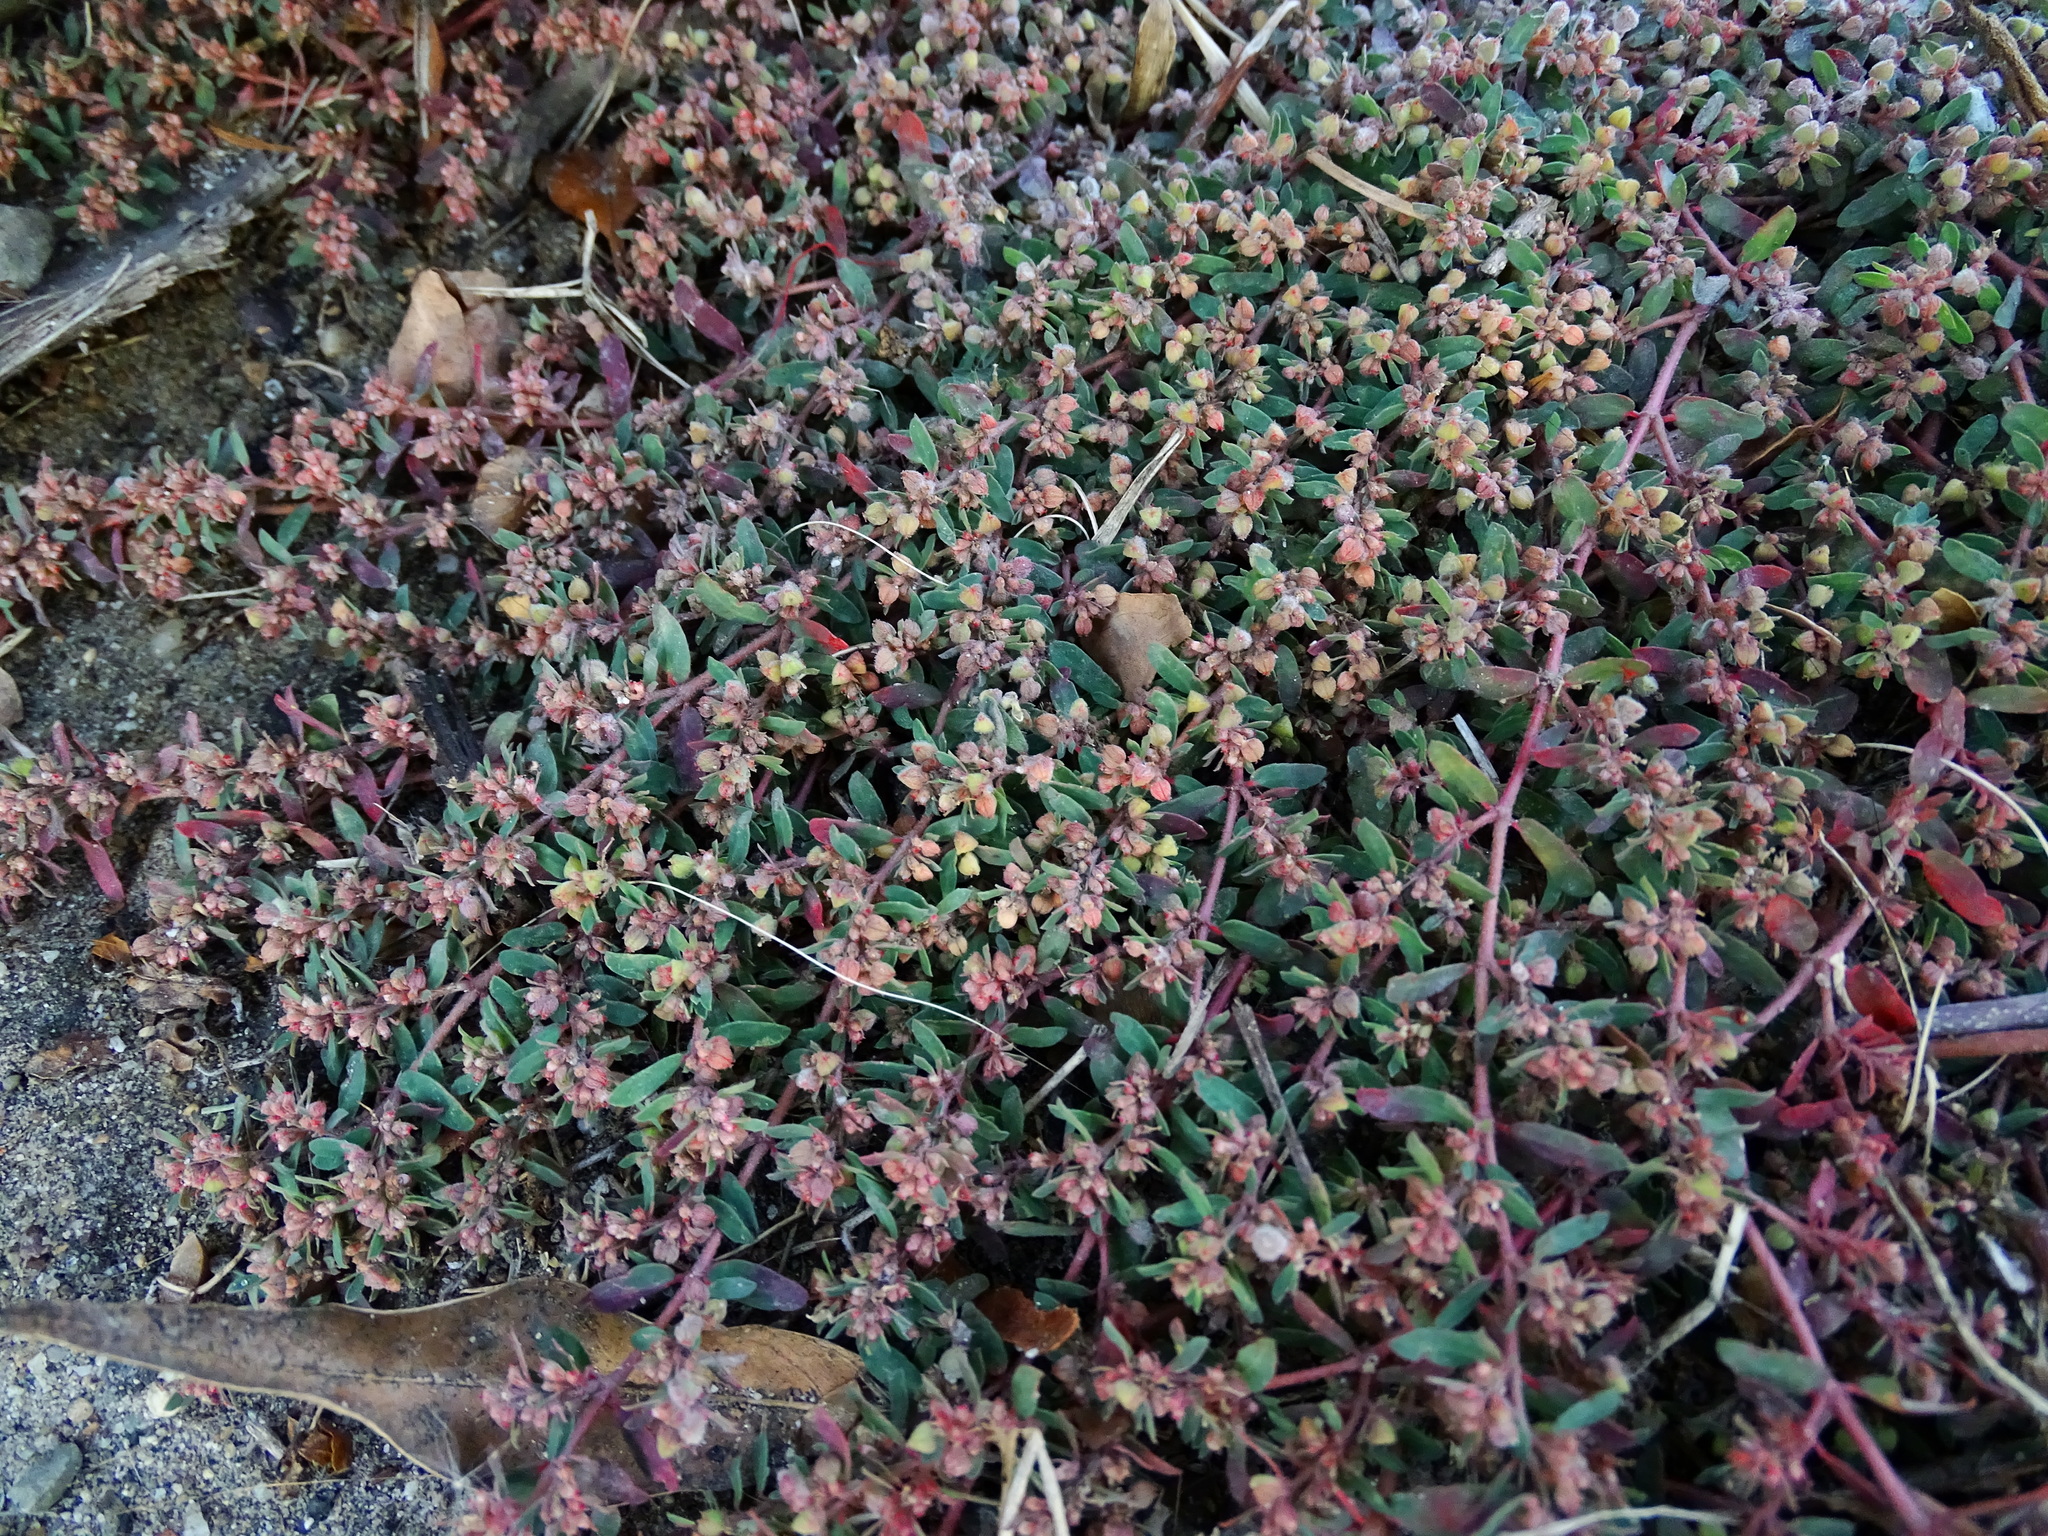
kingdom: Plantae
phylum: Tracheophyta
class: Magnoliopsida
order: Malpighiales
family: Euphorbiaceae
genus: Euphorbia
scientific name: Euphorbia maculata
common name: Spotted spurge
